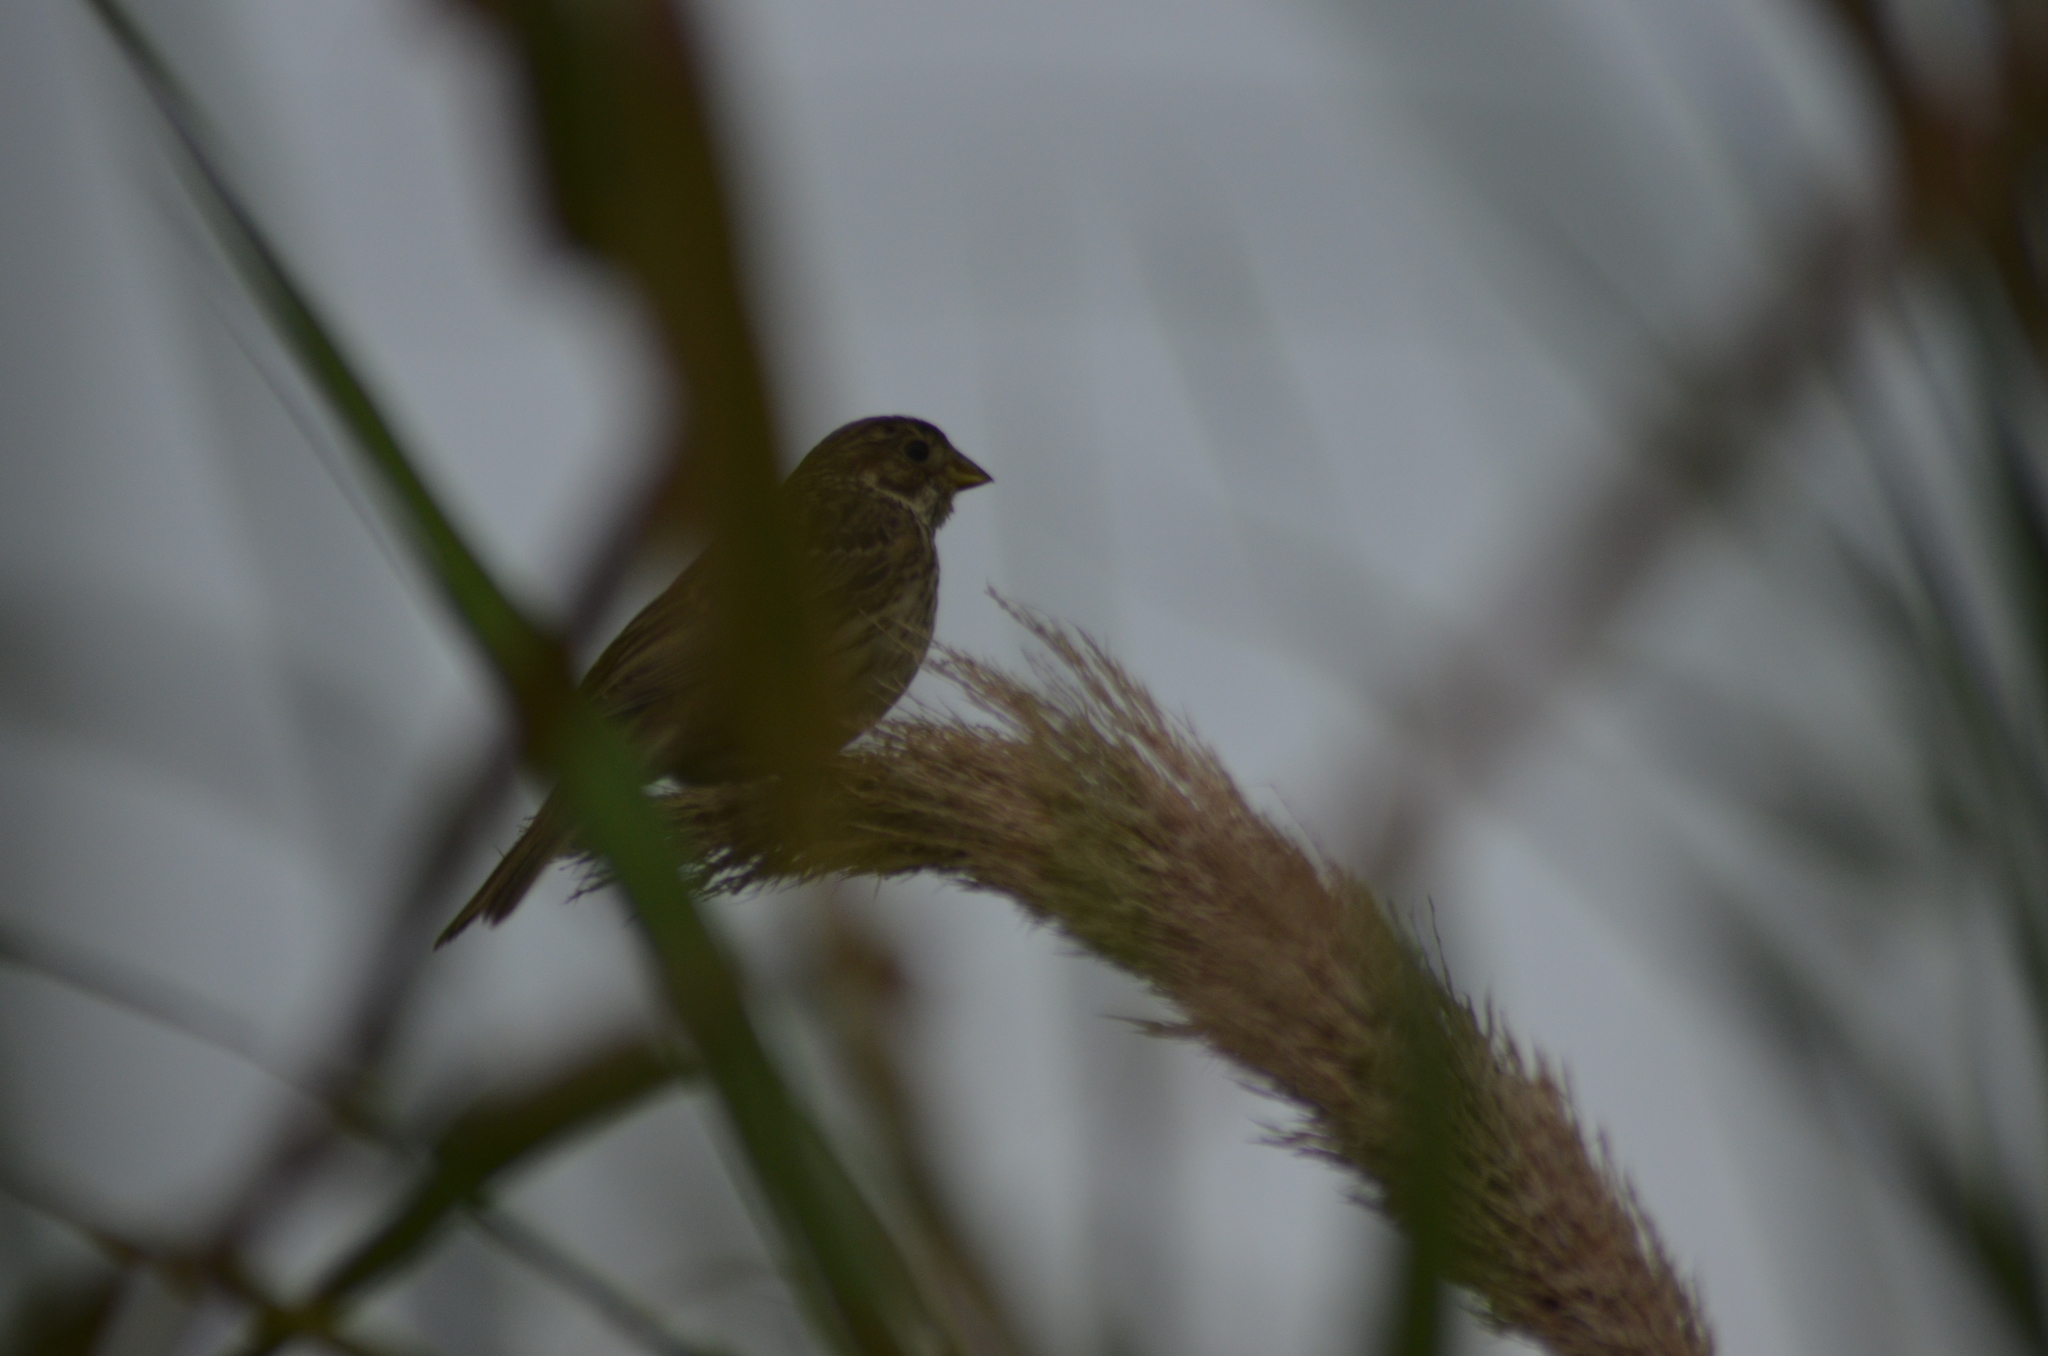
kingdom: Animalia
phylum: Chordata
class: Aves
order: Passeriformes
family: Emberizidae
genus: Emberiza
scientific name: Emberiza calandra
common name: Corn bunting
